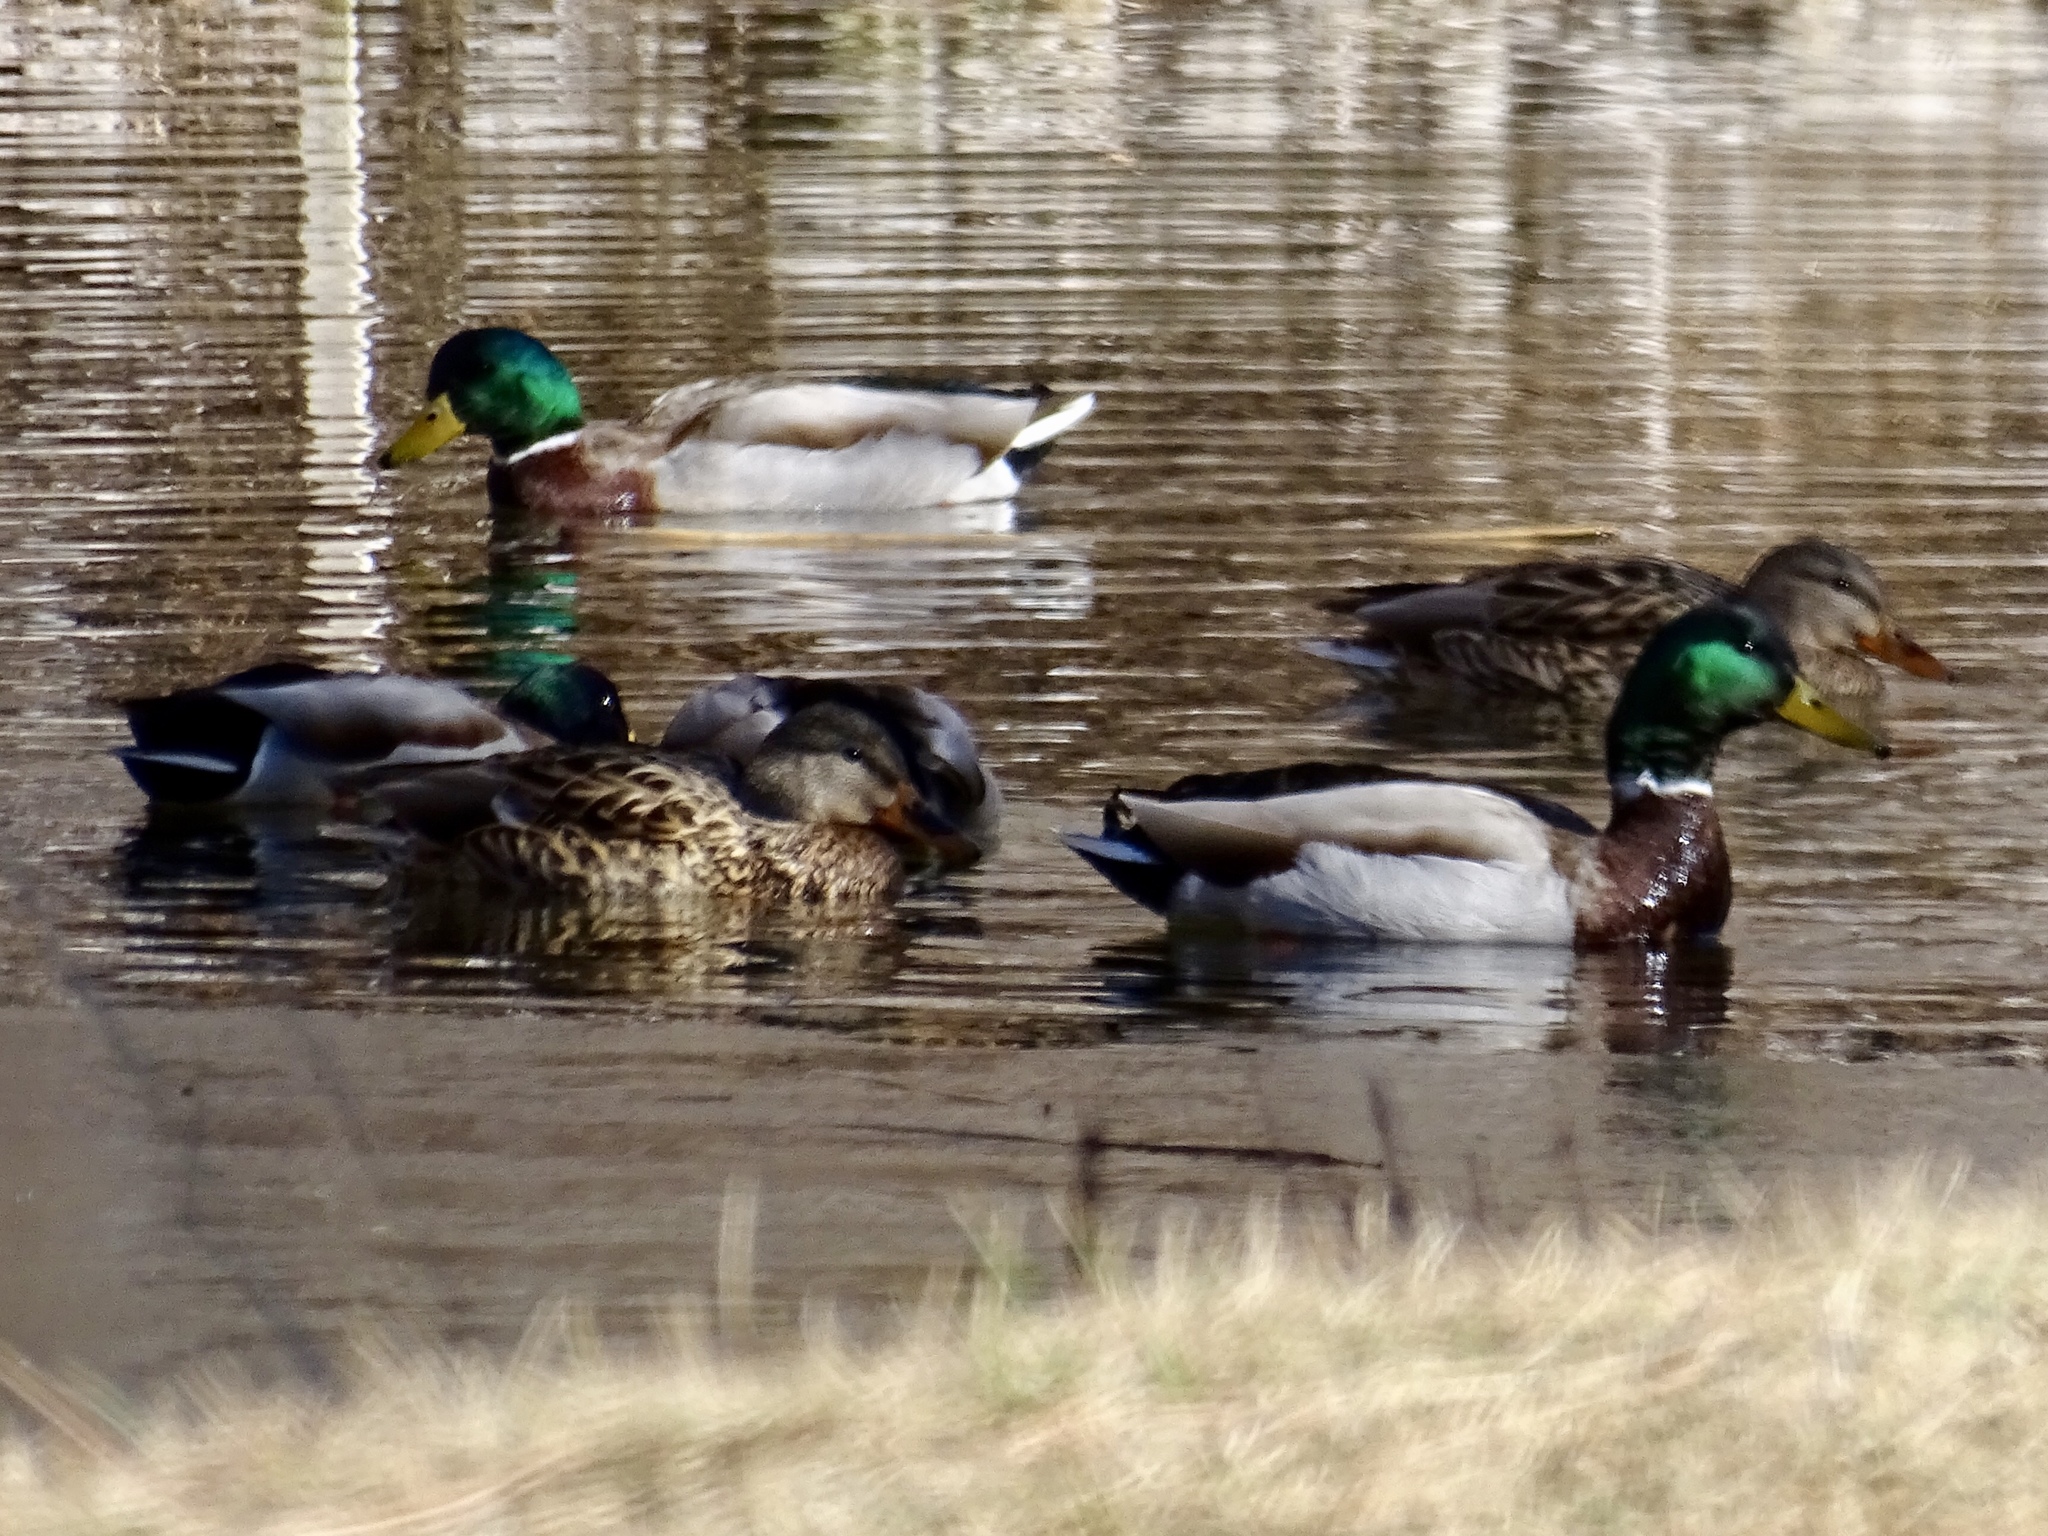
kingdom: Animalia
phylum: Chordata
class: Aves
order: Anseriformes
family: Anatidae
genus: Anas
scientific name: Anas platyrhynchos
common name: Mallard
